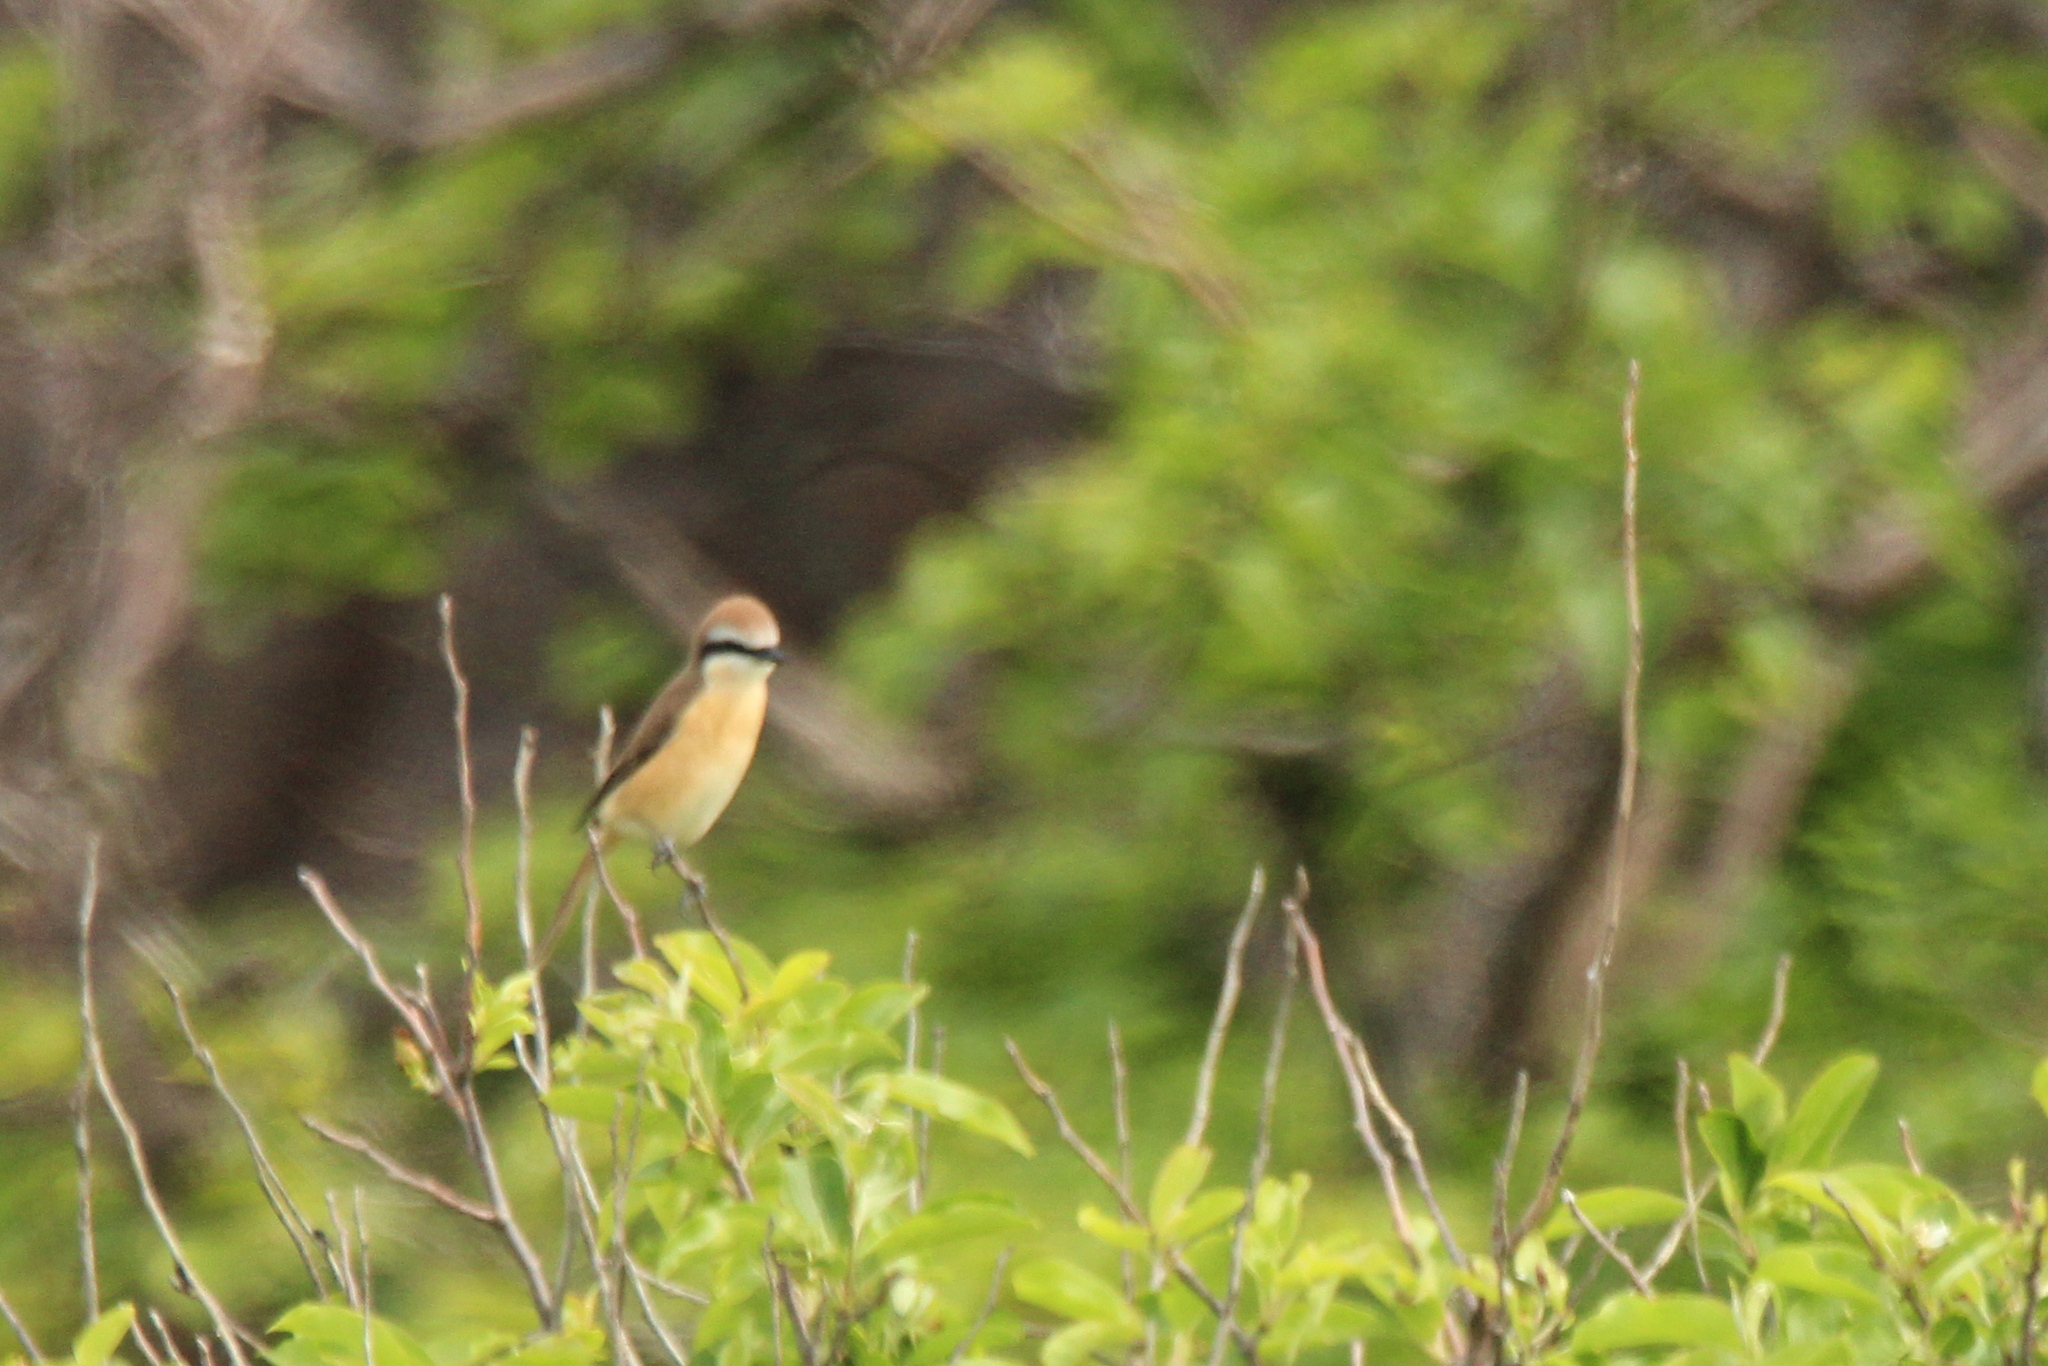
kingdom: Animalia
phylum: Chordata
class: Aves
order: Passeriformes
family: Laniidae
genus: Lanius
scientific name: Lanius cristatus
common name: Brown shrike
